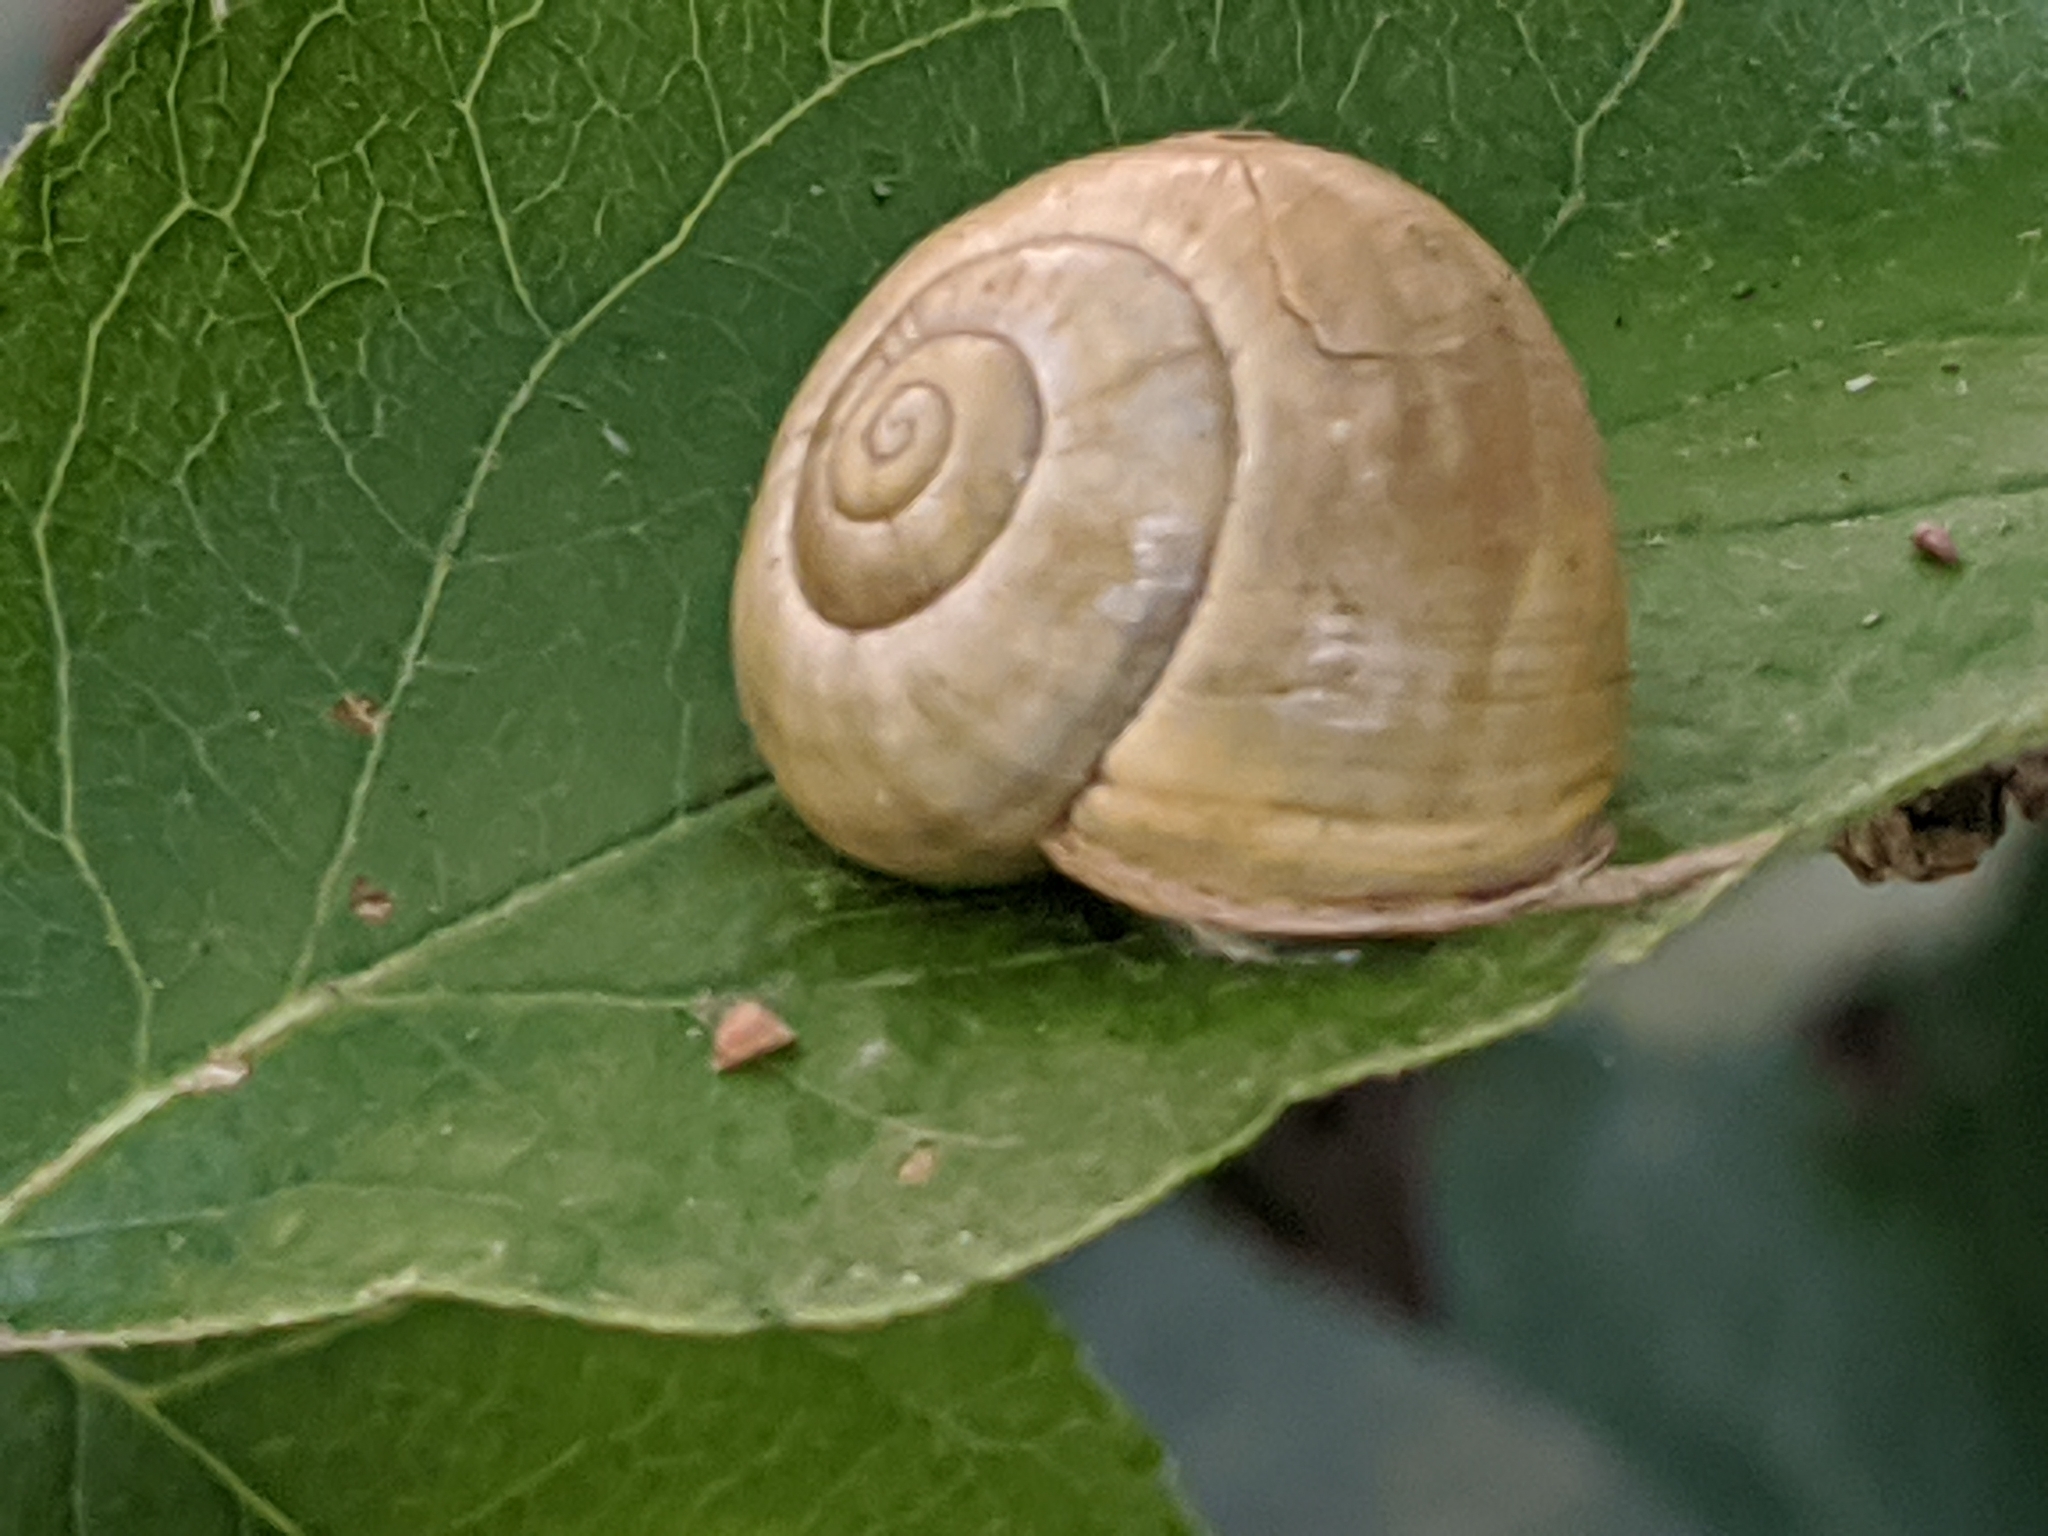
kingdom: Animalia
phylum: Mollusca
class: Gastropoda
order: Stylommatophora
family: Helicidae
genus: Cepaea
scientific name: Cepaea hortensis
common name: White-lip gardensnail
